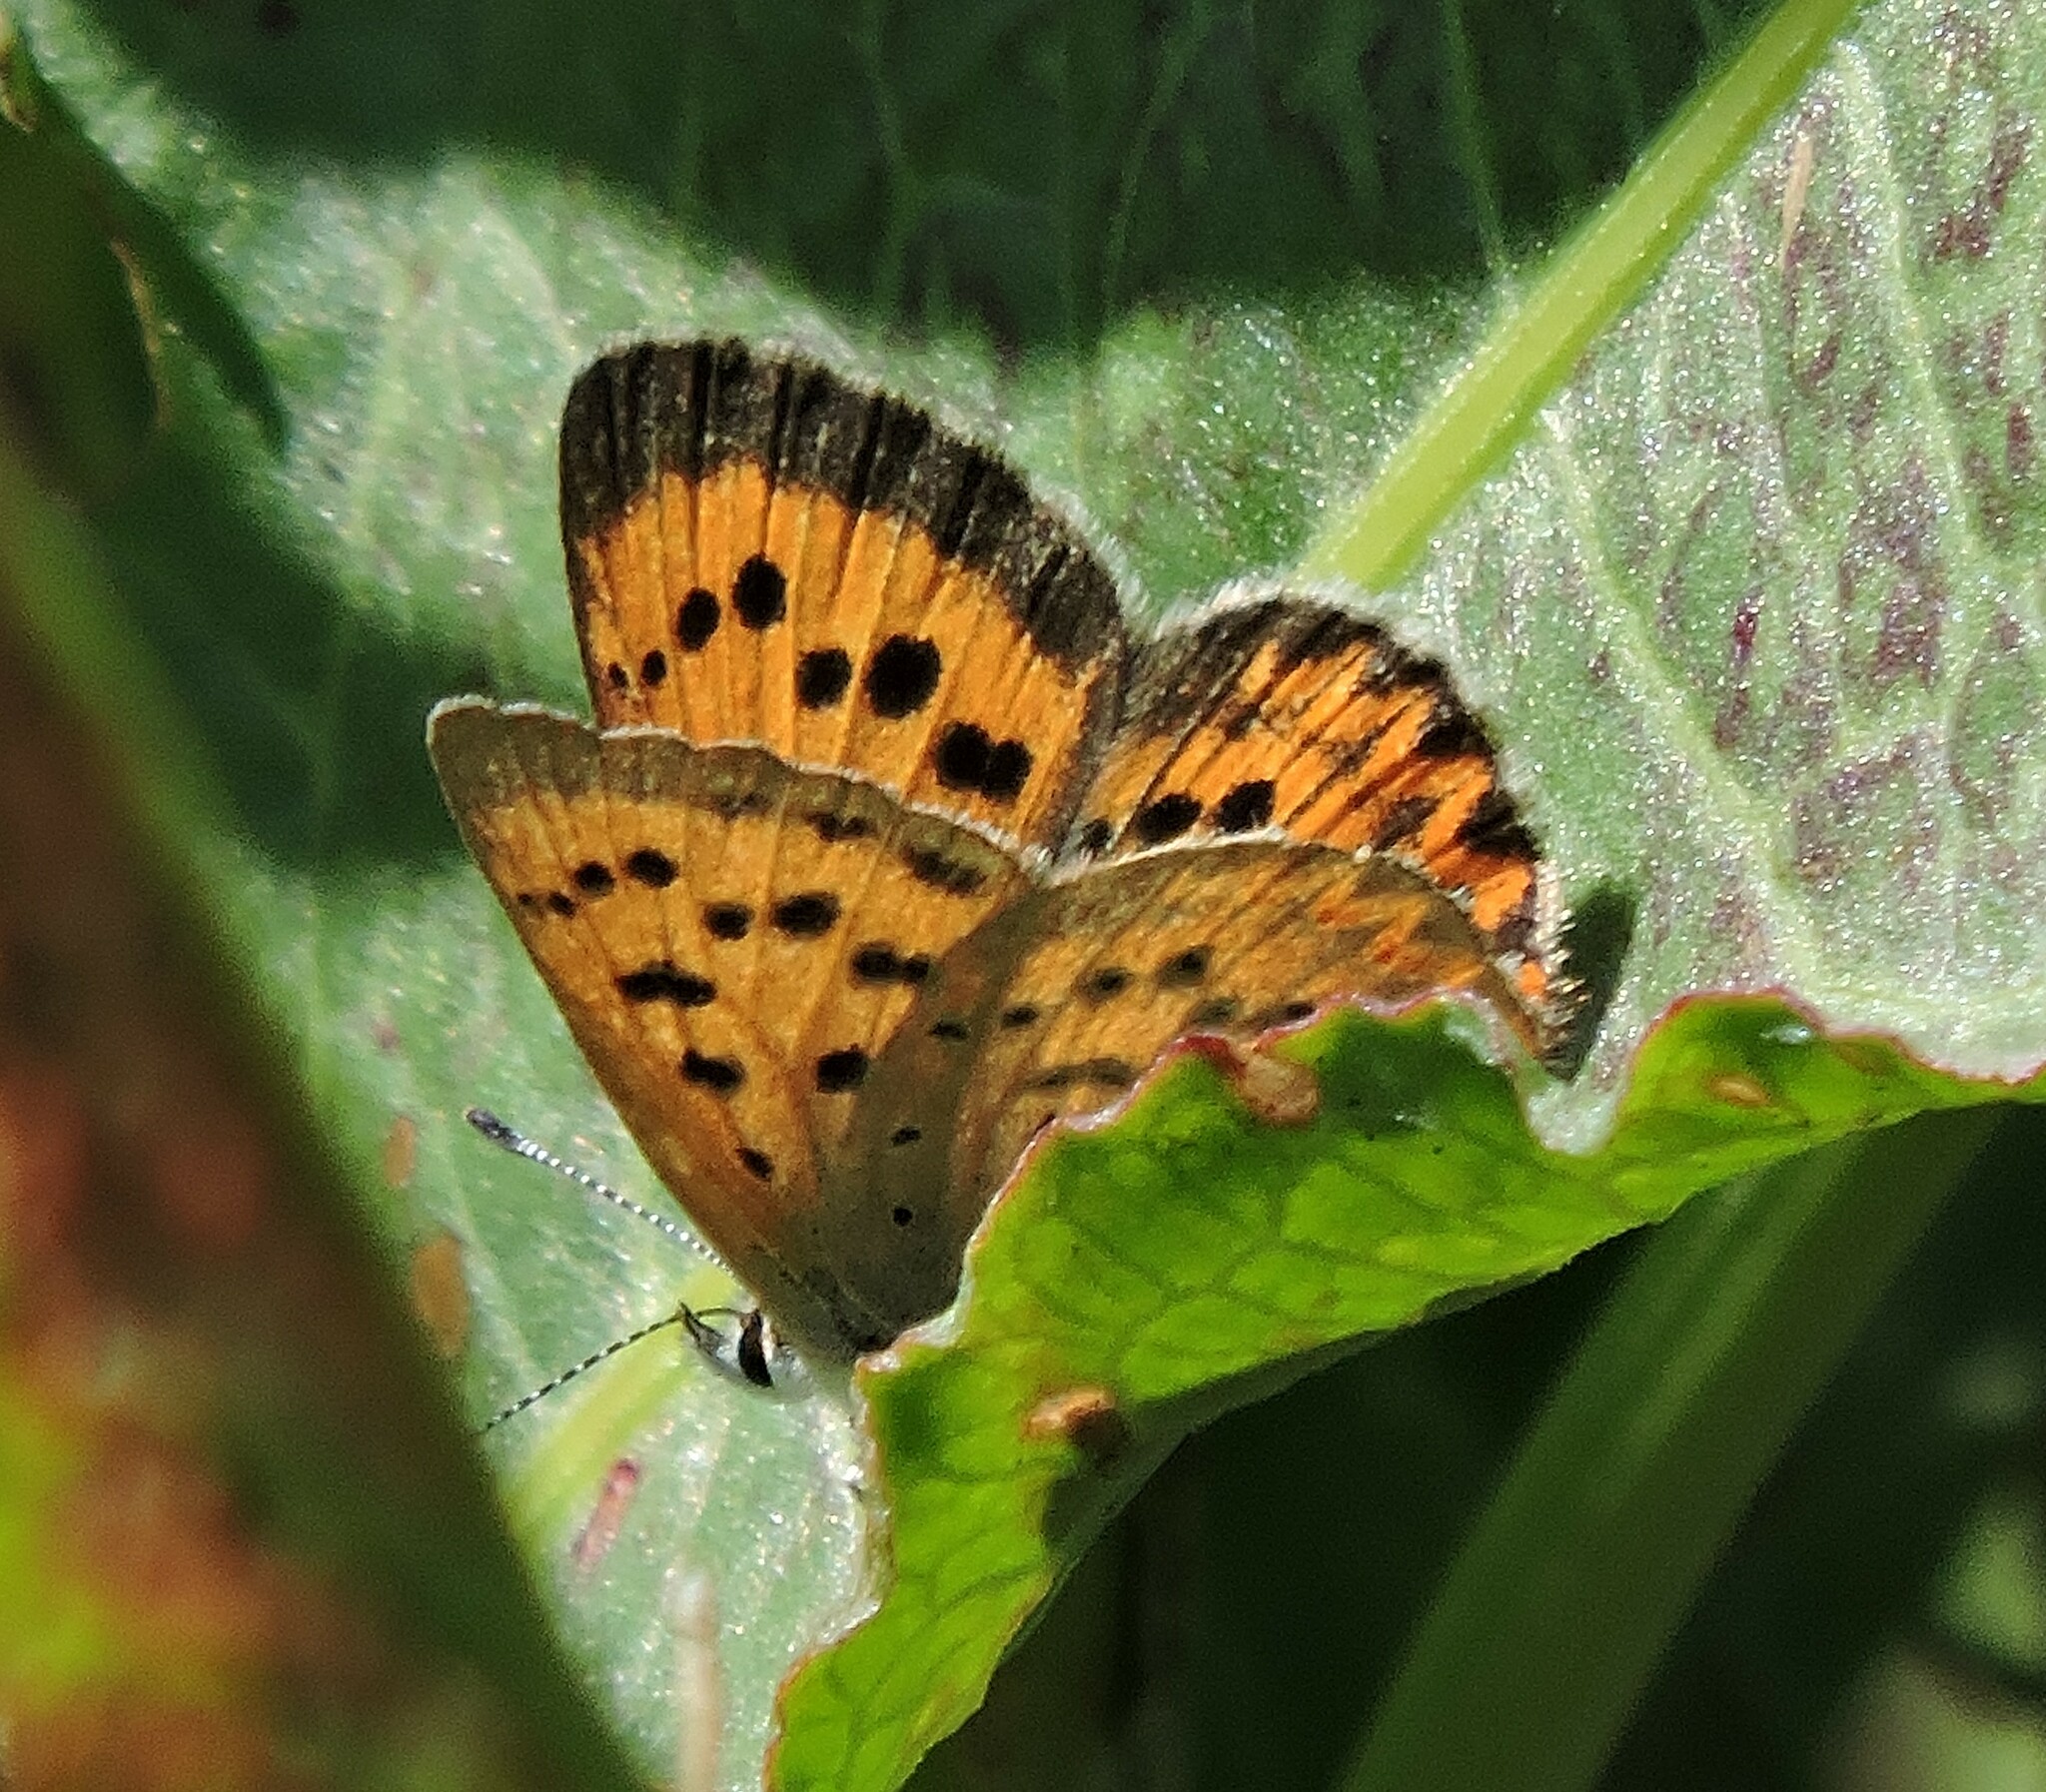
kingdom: Animalia
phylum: Arthropoda
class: Insecta
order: Lepidoptera
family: Lycaenidae
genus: Tharsalea
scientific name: Tharsalea helloides
